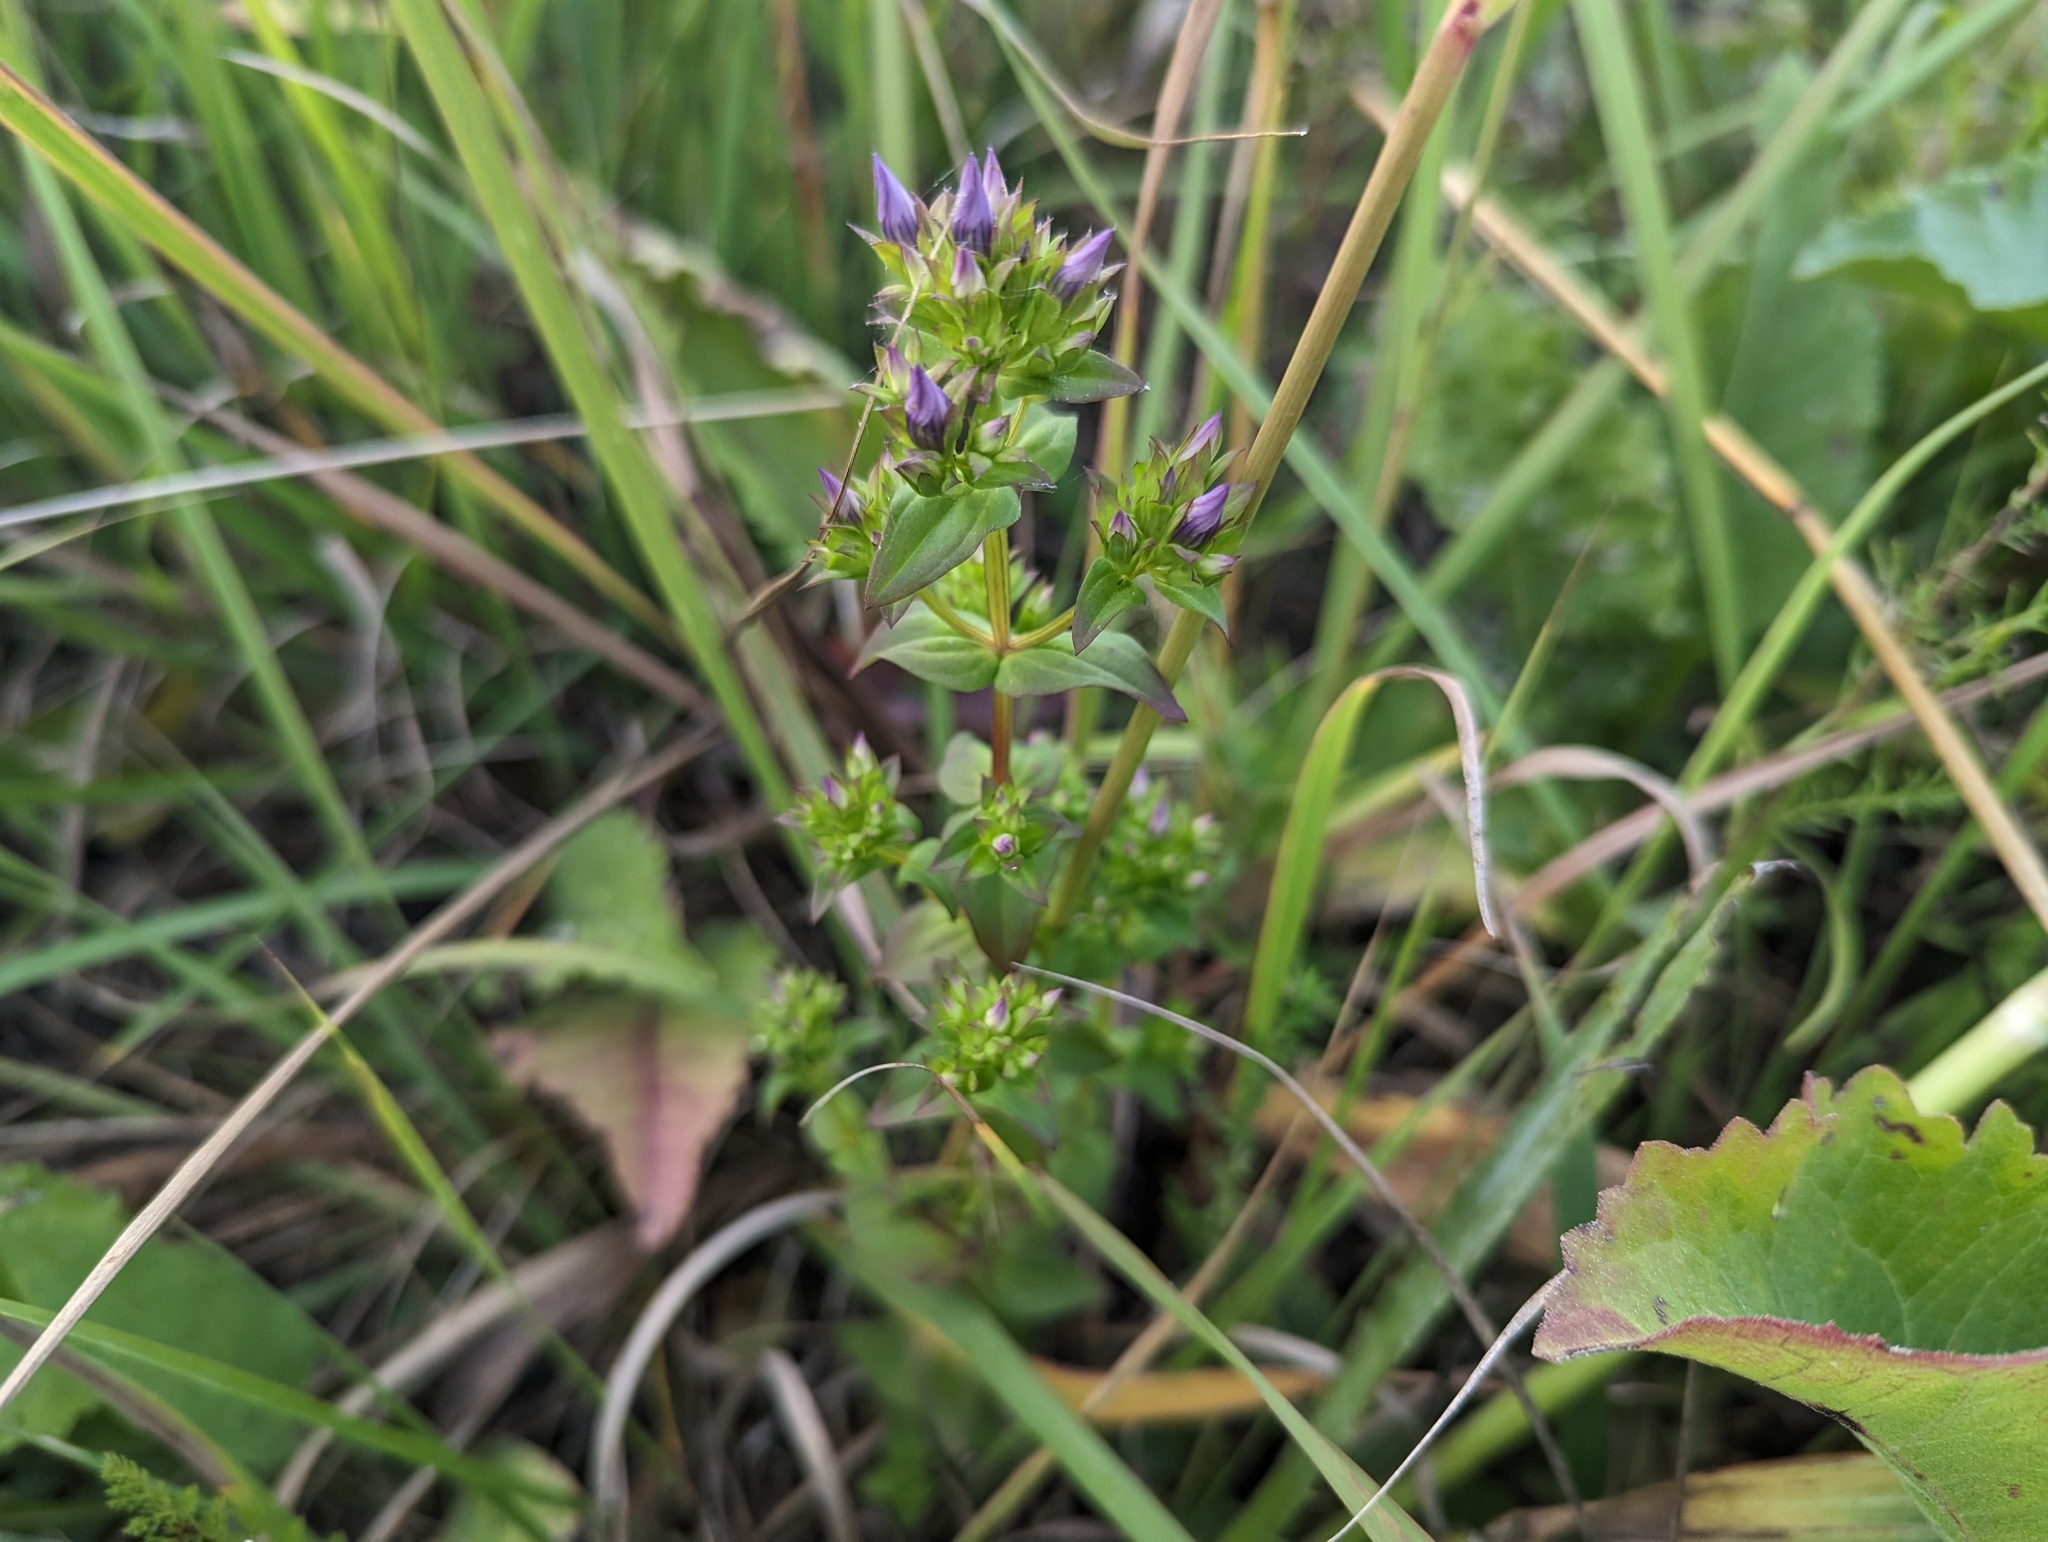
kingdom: Plantae
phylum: Tracheophyta
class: Magnoliopsida
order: Gentianales
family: Gentianaceae
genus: Gentianella
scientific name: Gentianella quinquefolia
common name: Agueweed
